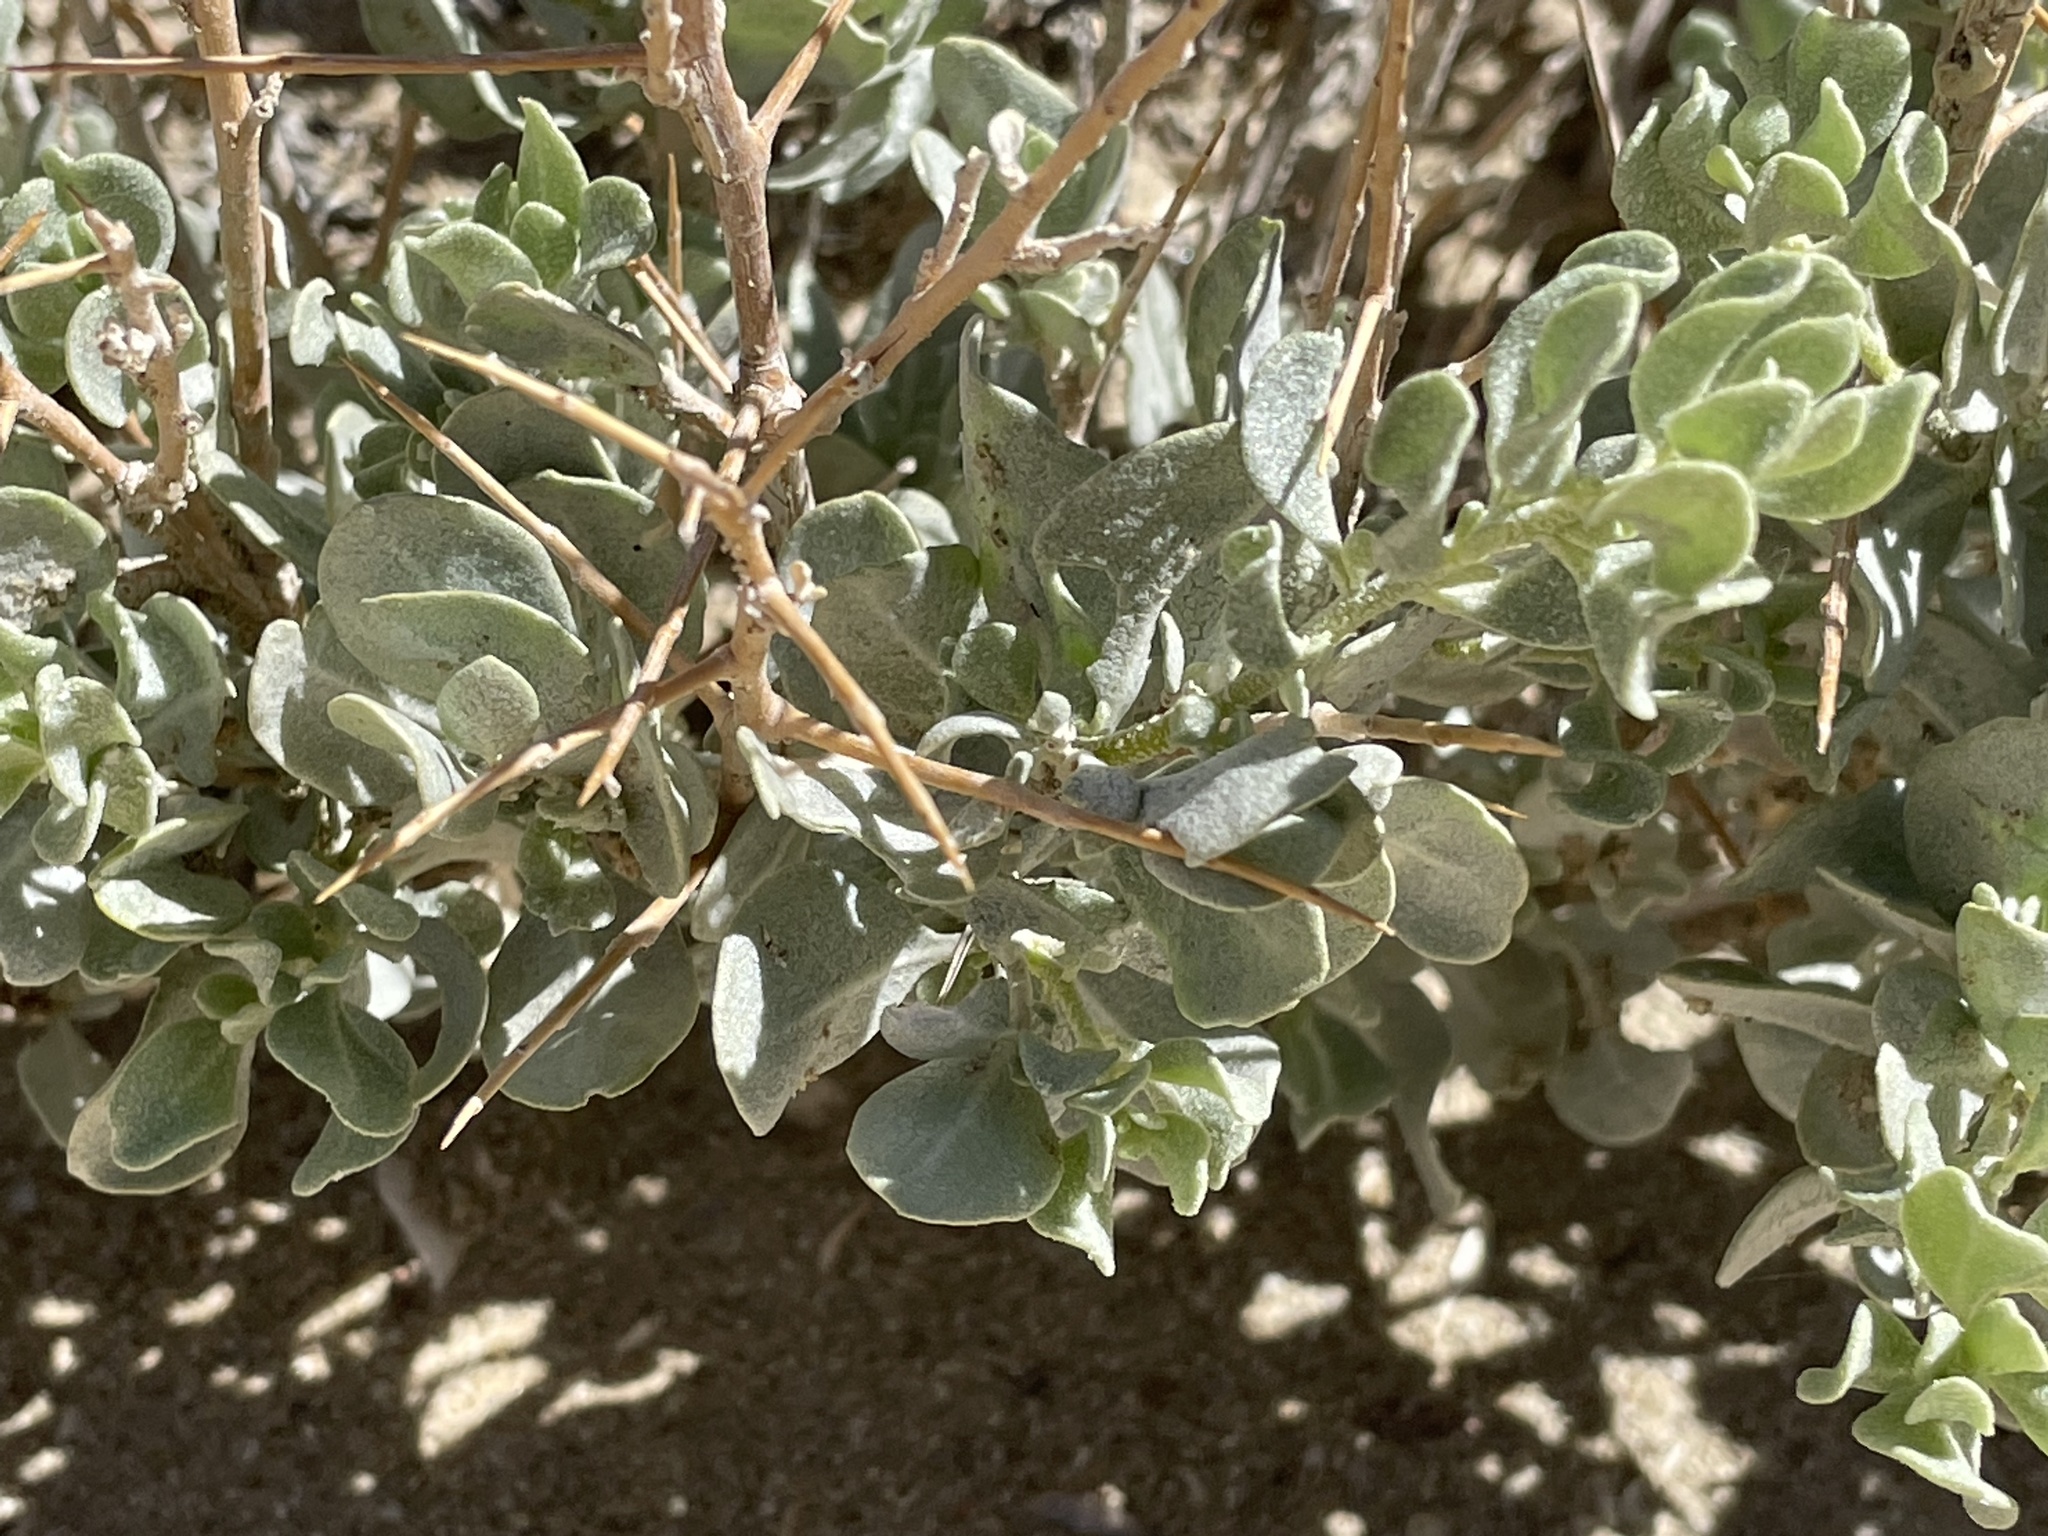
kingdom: Plantae
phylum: Tracheophyta
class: Magnoliopsida
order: Caryophyllales
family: Amaranthaceae
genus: Atriplex
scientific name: Atriplex confertifolia
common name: Shadscale
